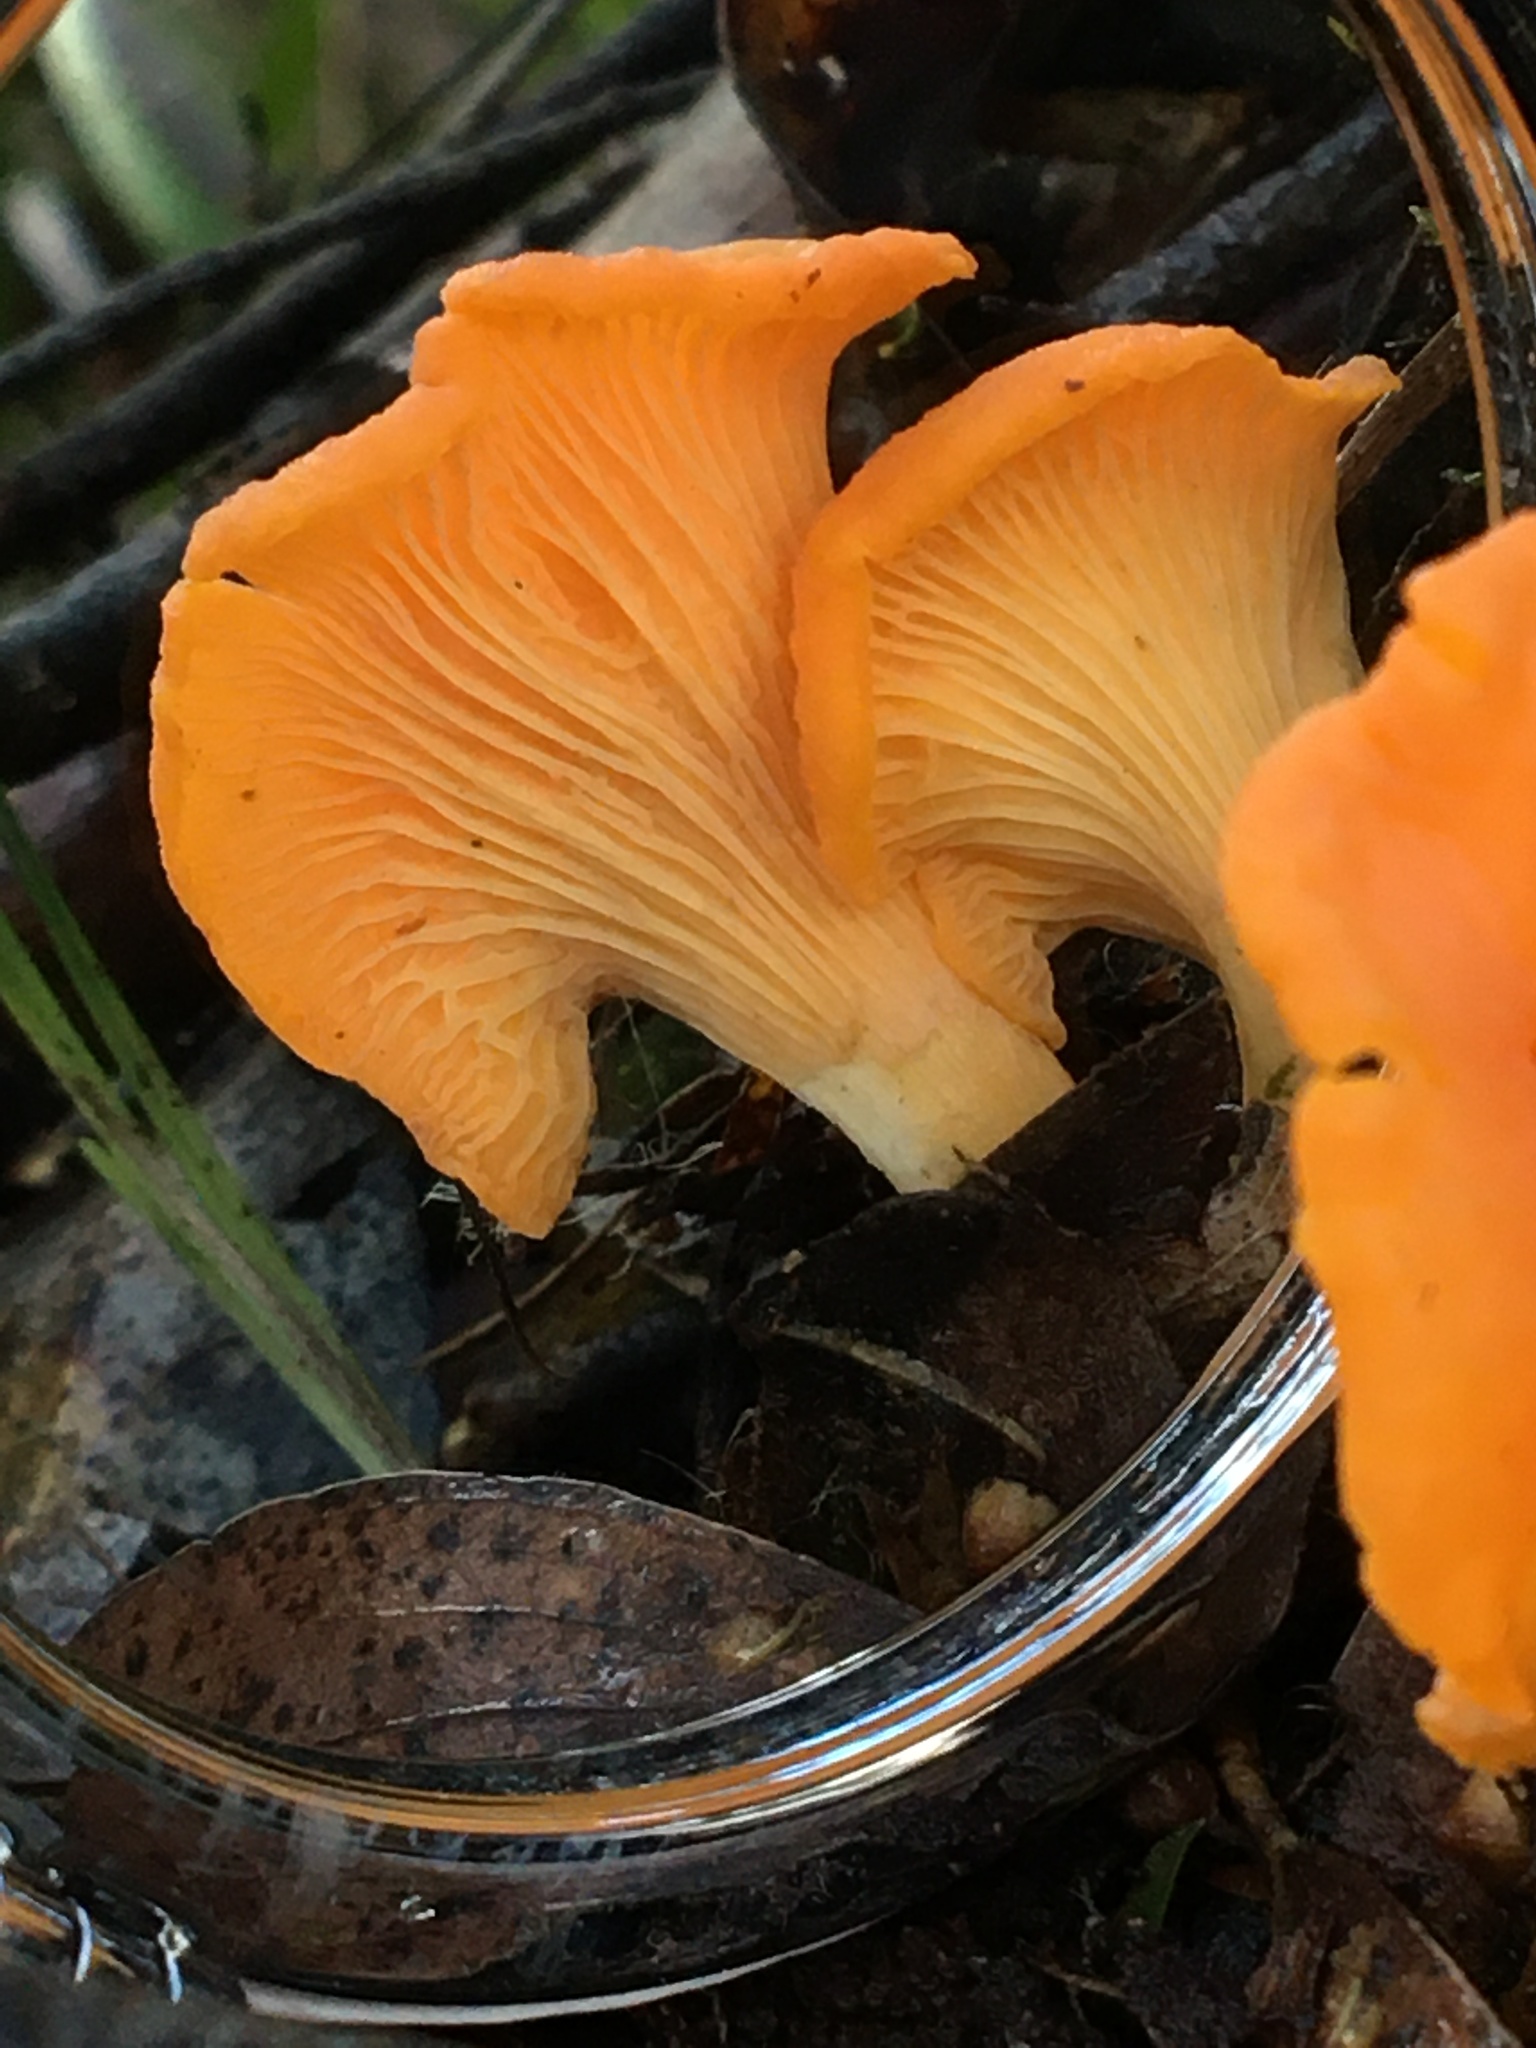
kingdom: Fungi
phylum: Basidiomycota
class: Agaricomycetes
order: Cantharellales
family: Hydnaceae
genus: Cantharellus
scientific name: Cantharellus
